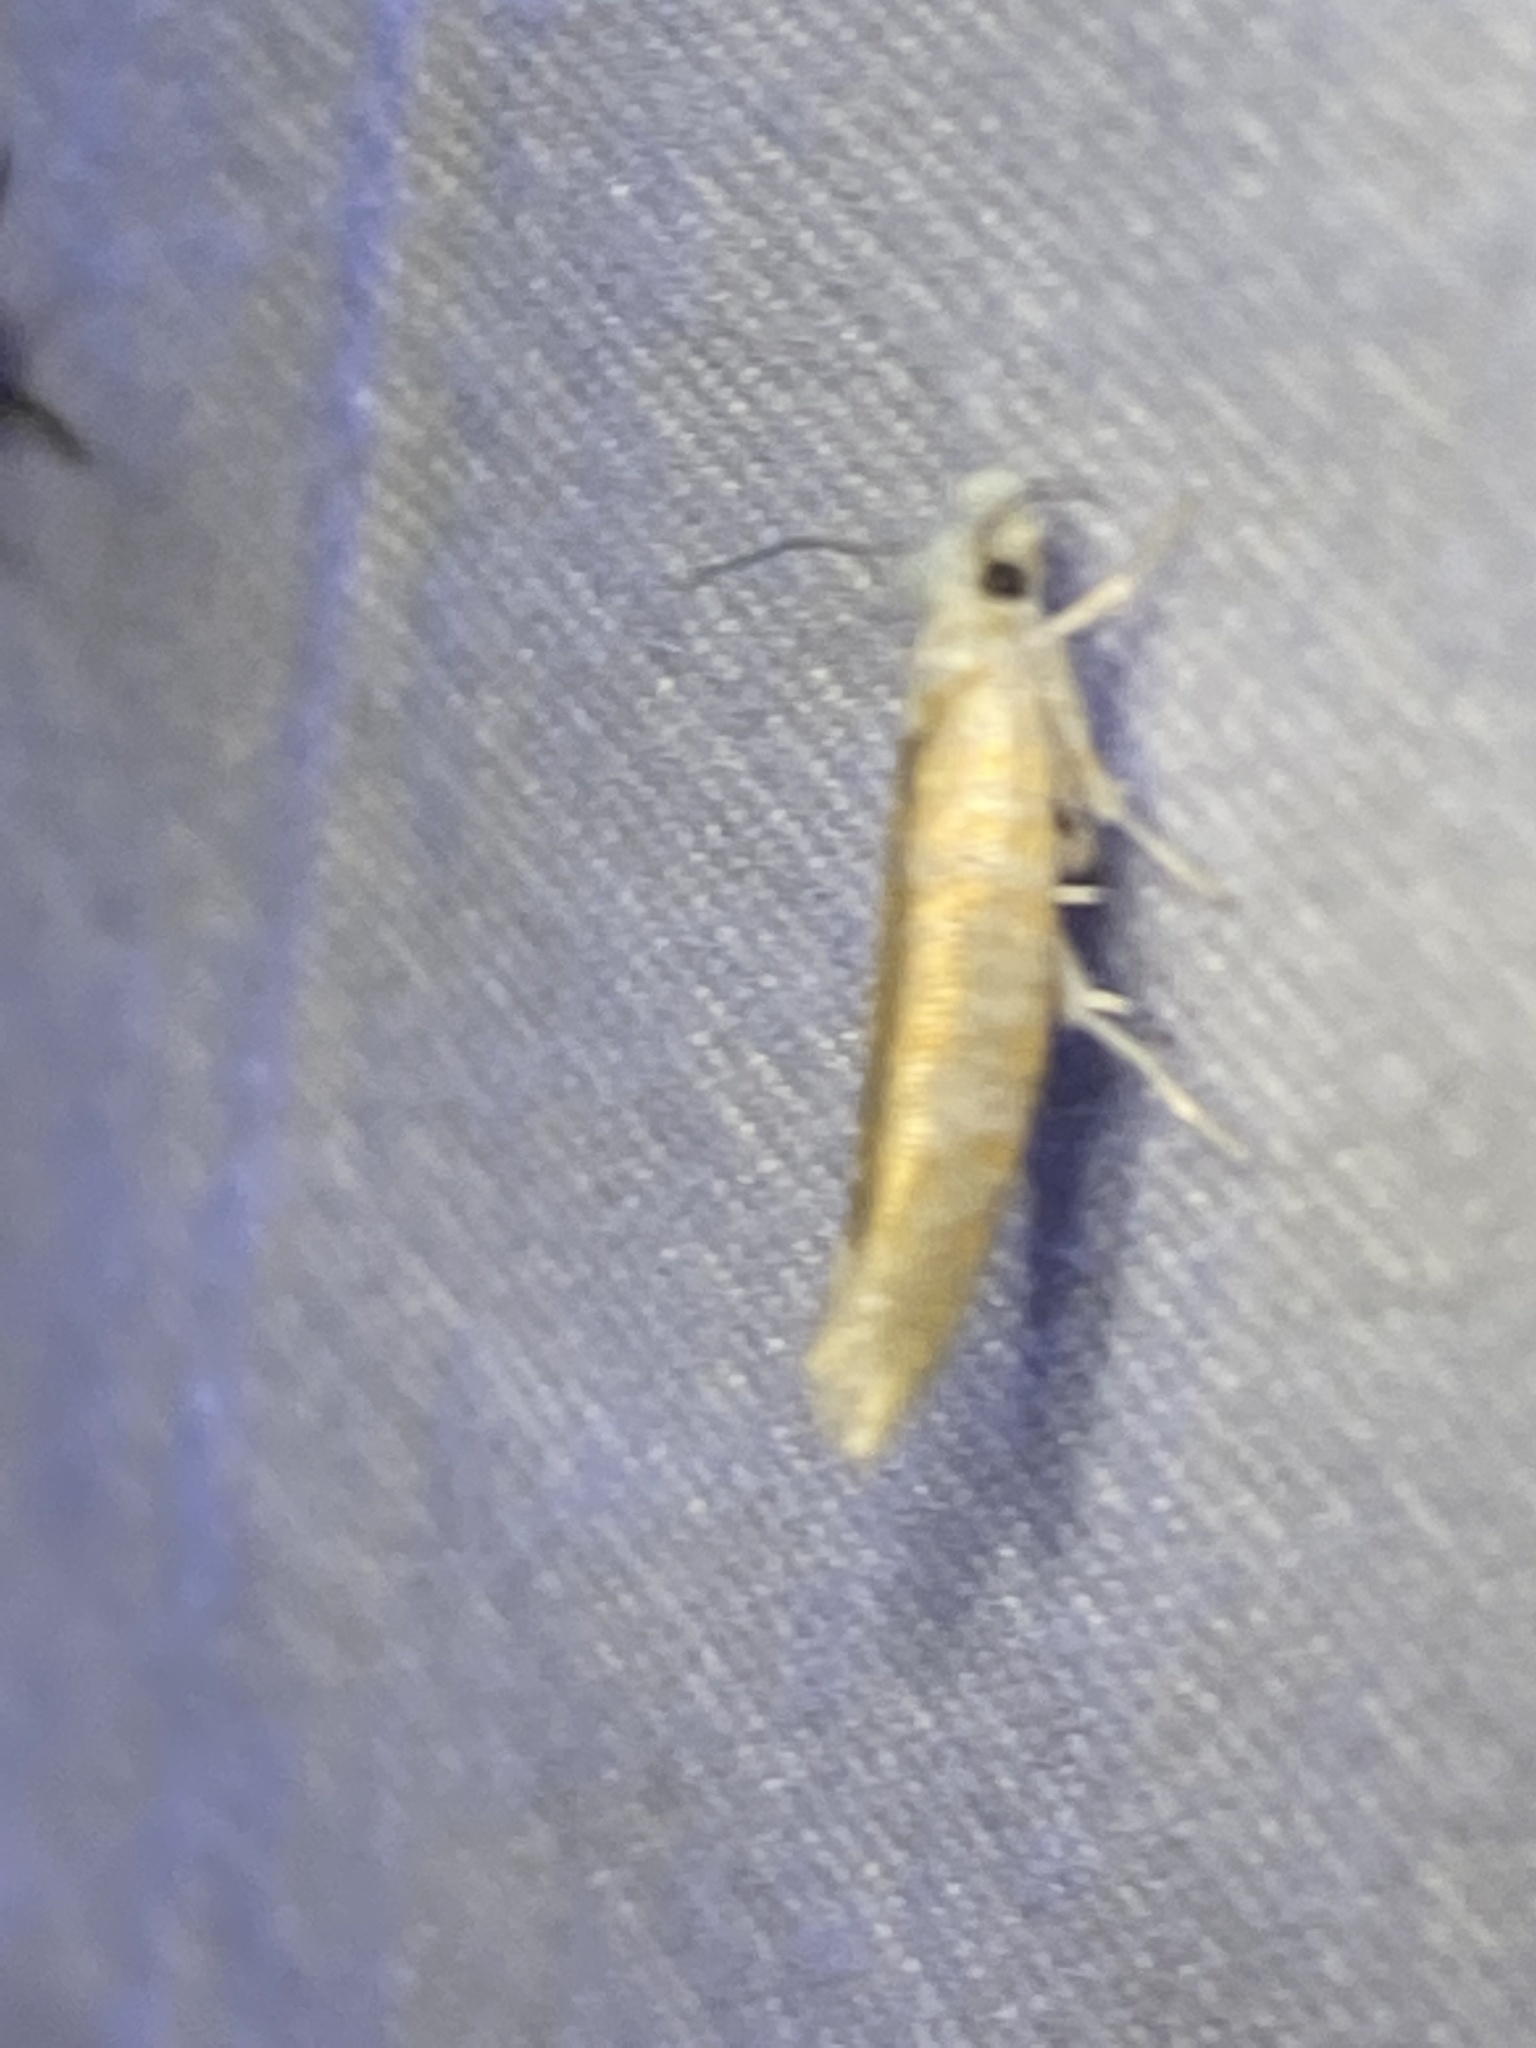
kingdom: Animalia
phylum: Arthropoda
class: Insecta
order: Lepidoptera
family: Yponomeutidae
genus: Zelleria
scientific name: Zelleria retiniella
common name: Brindled zelleria
